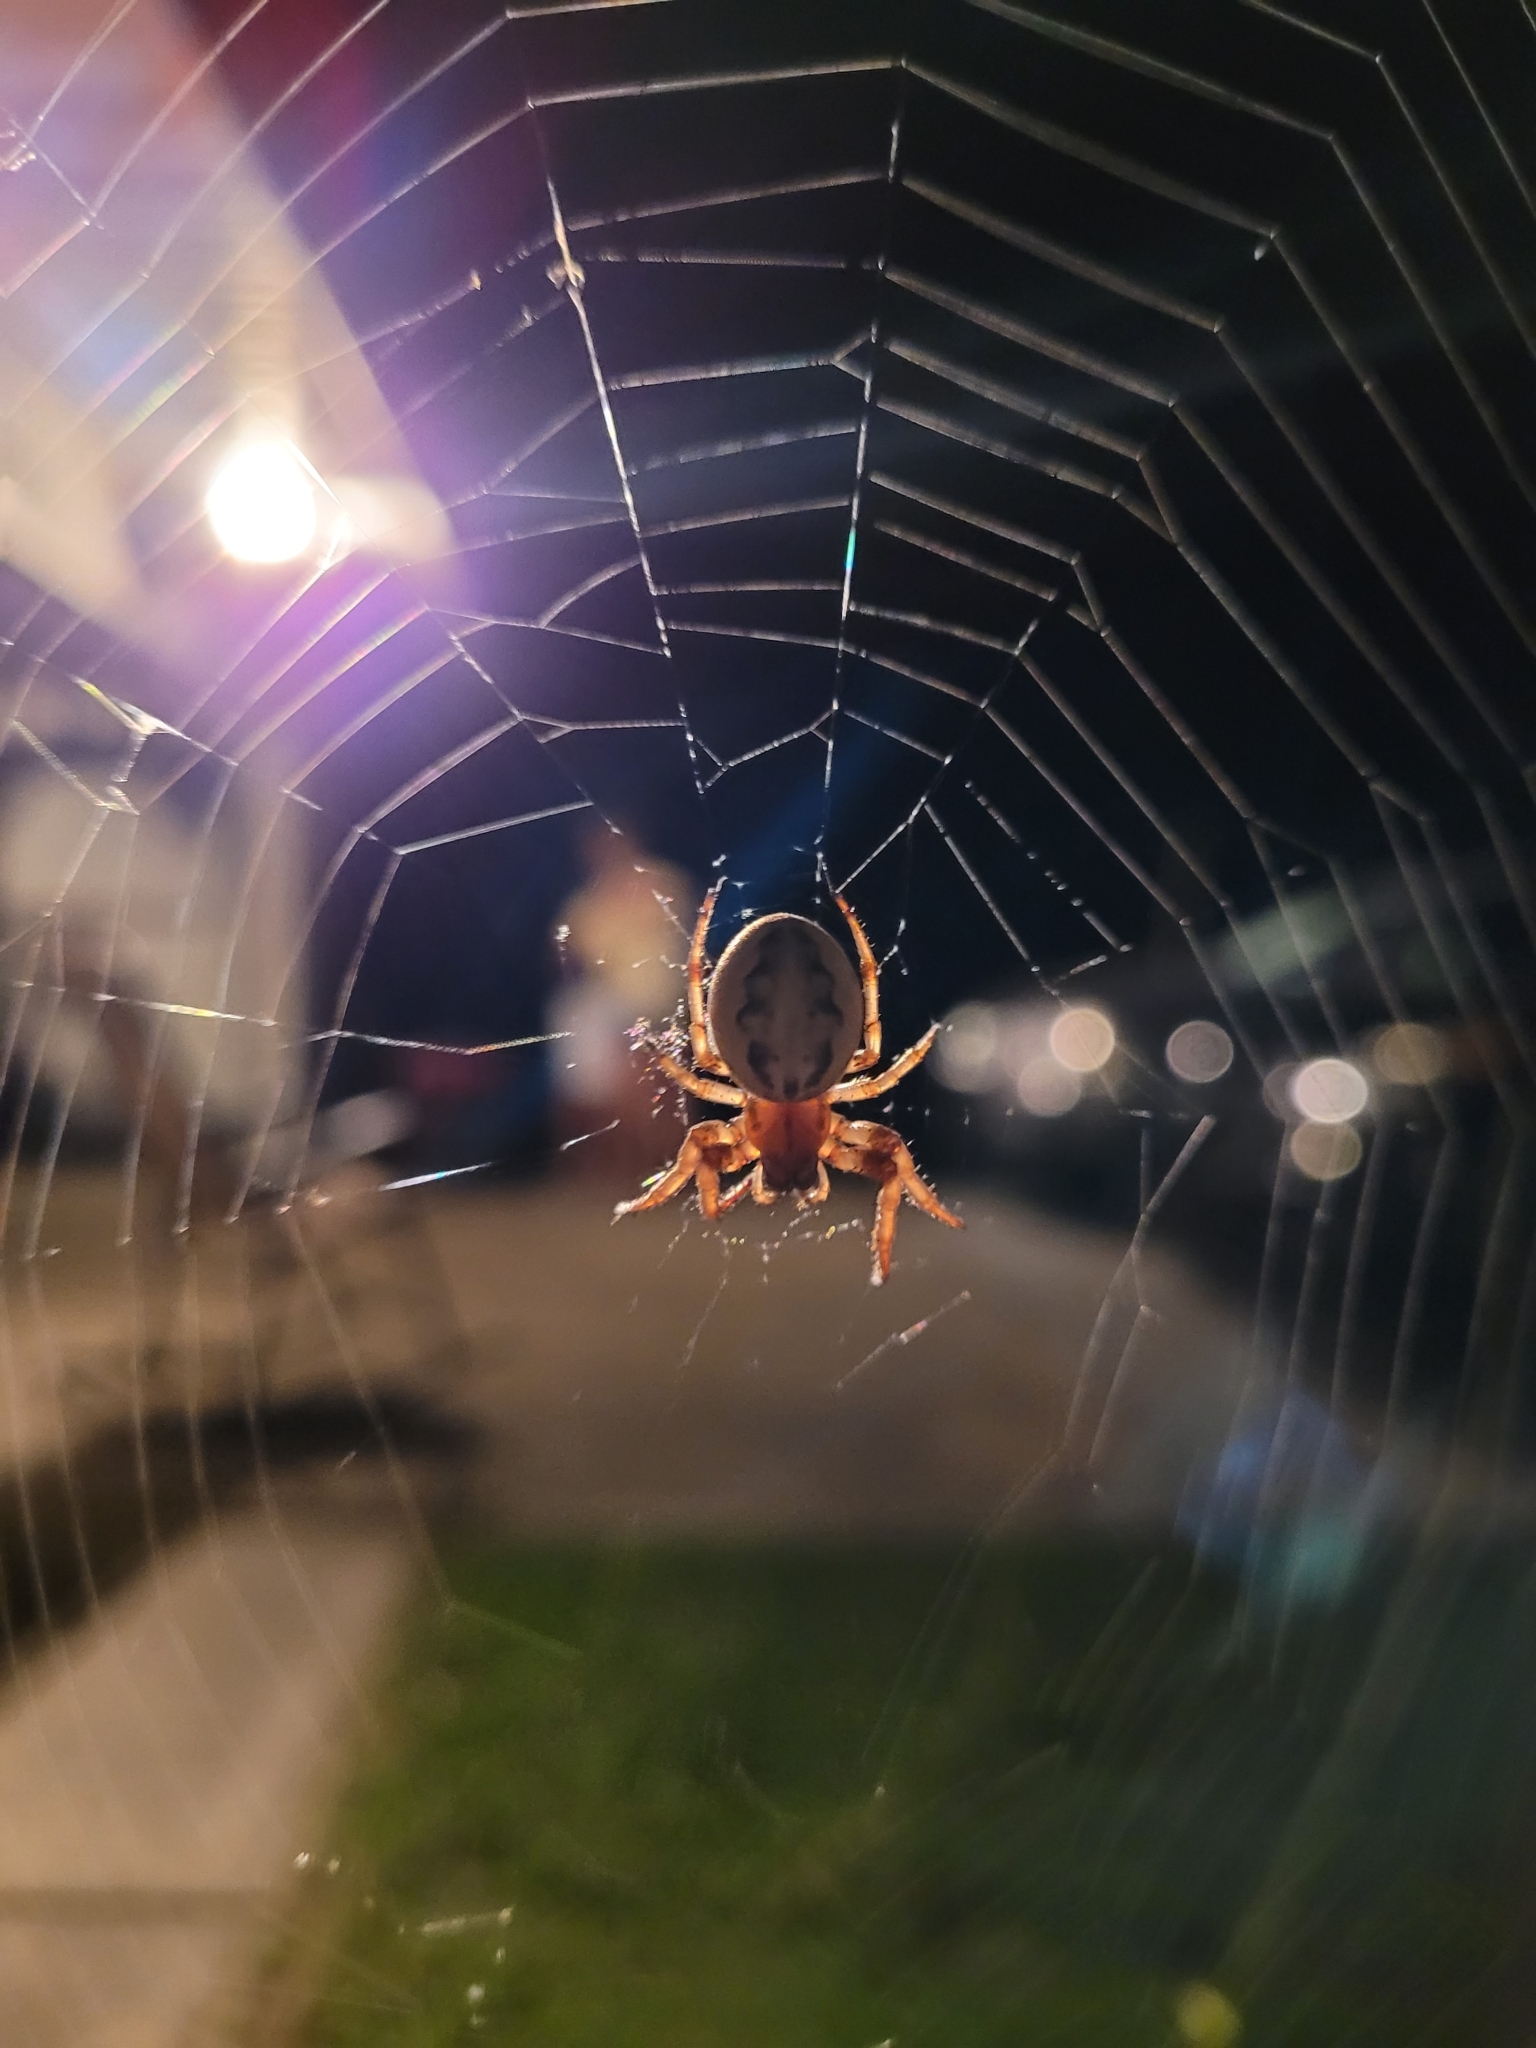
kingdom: Animalia
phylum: Arthropoda
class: Arachnida
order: Araneae
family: Araneidae
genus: Larinioides
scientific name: Larinioides cornutus
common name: Furrow orbweaver
